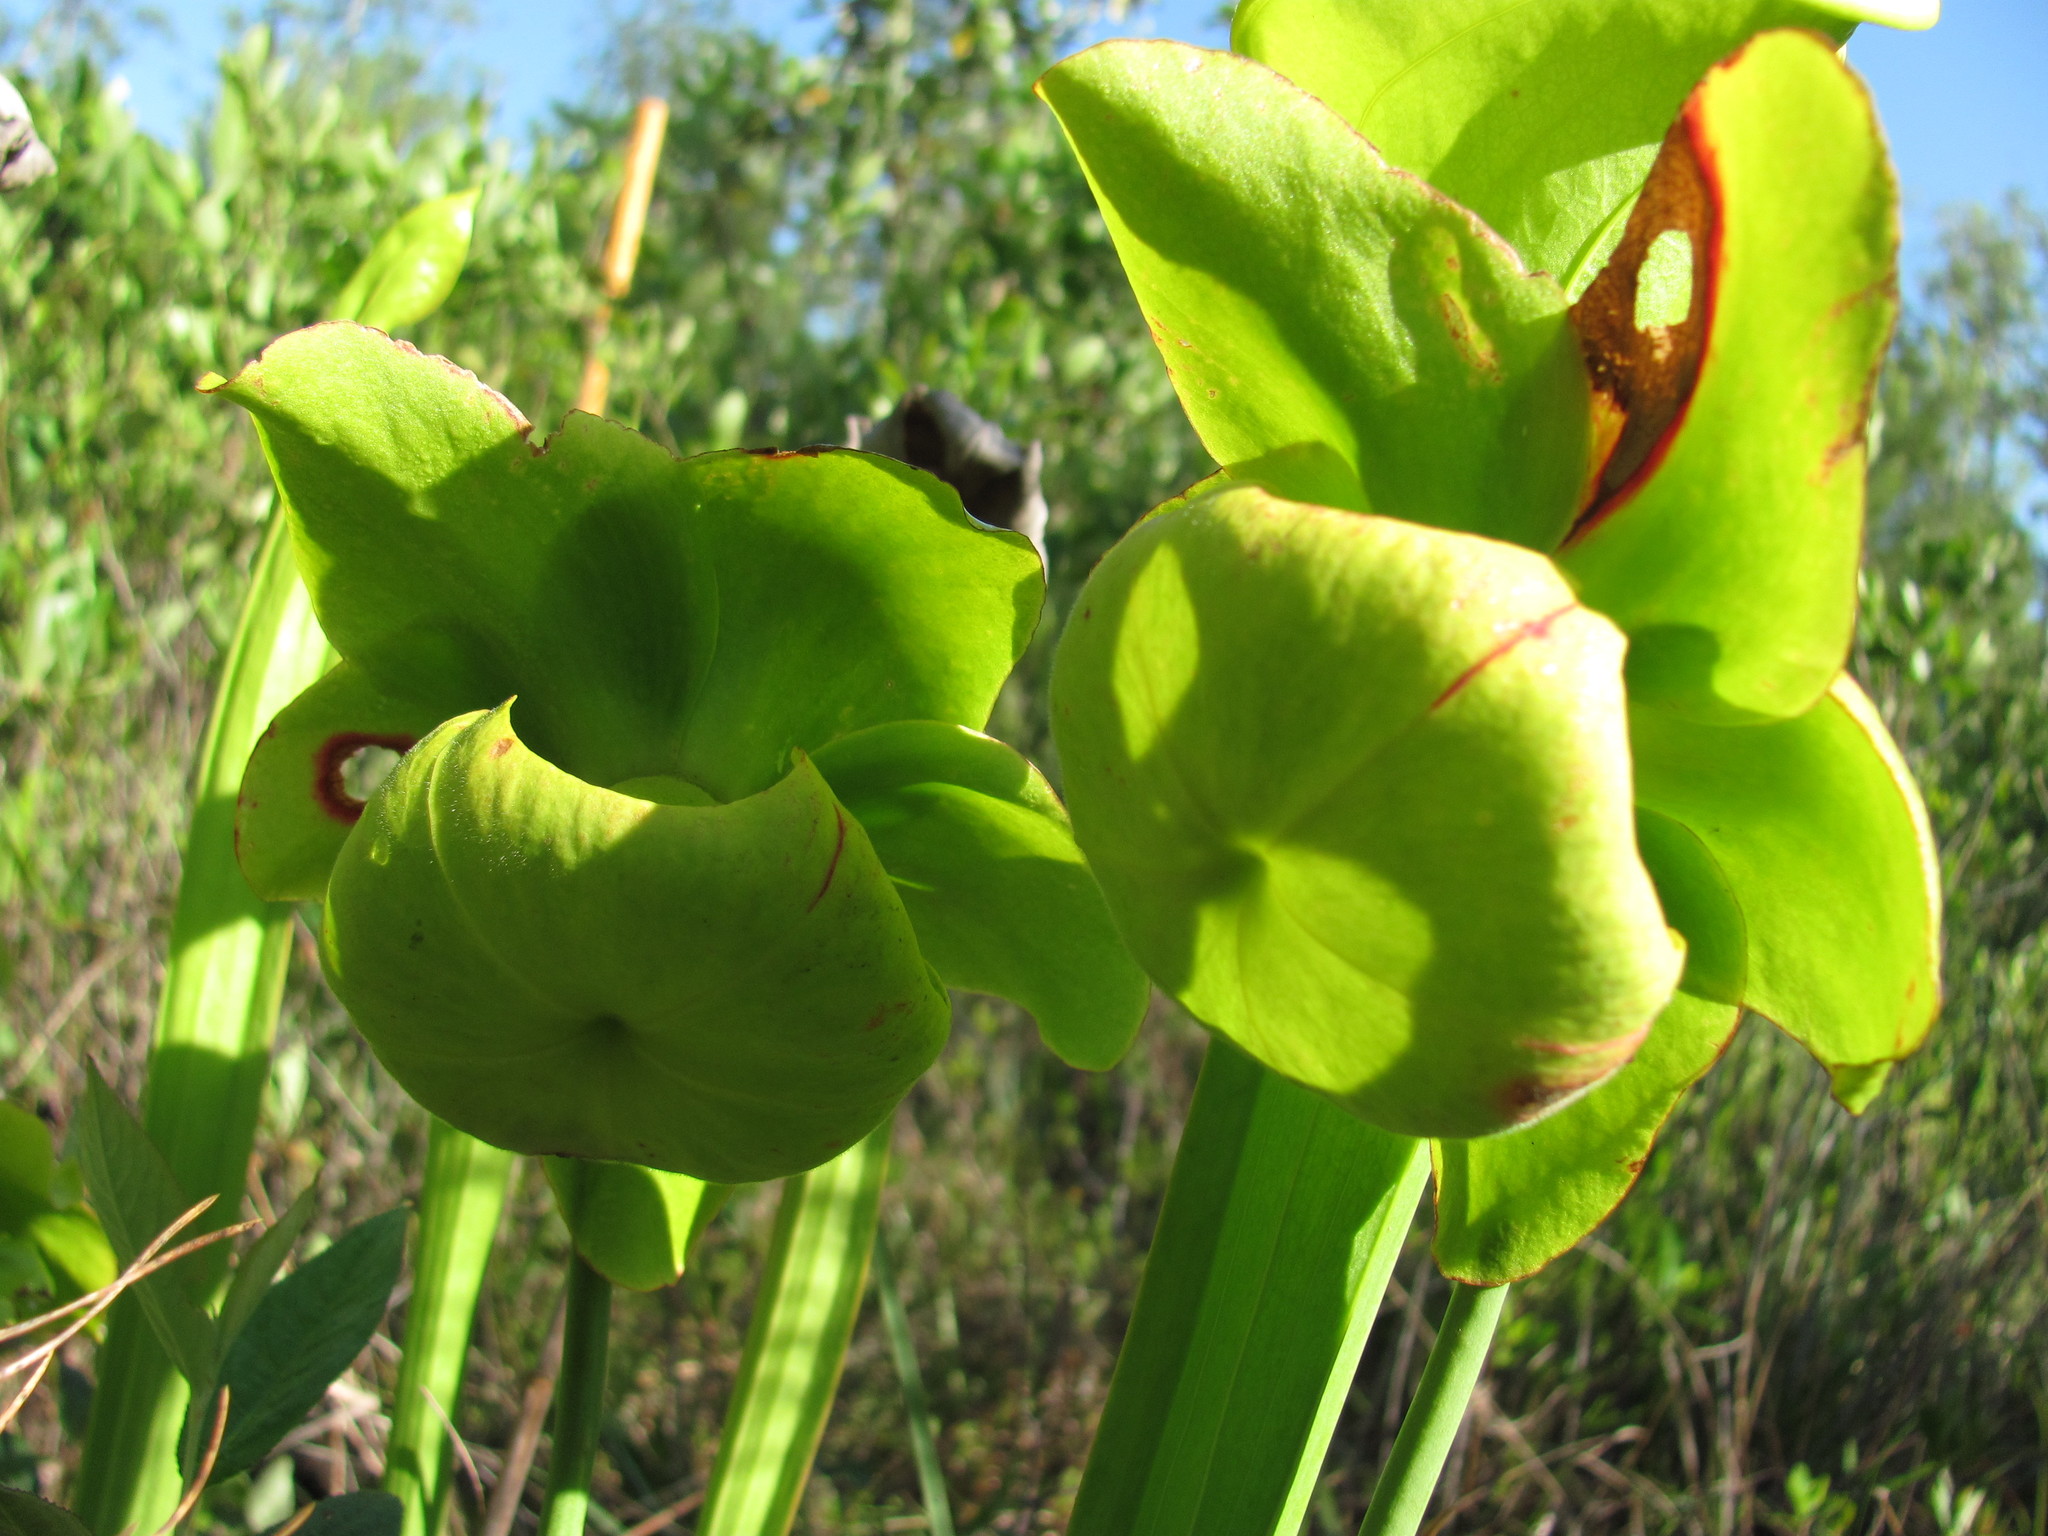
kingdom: Plantae
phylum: Tracheophyta
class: Magnoliopsida
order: Ericales
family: Sarraceniaceae
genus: Sarracenia
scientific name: Sarracenia flava
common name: Trumpets
